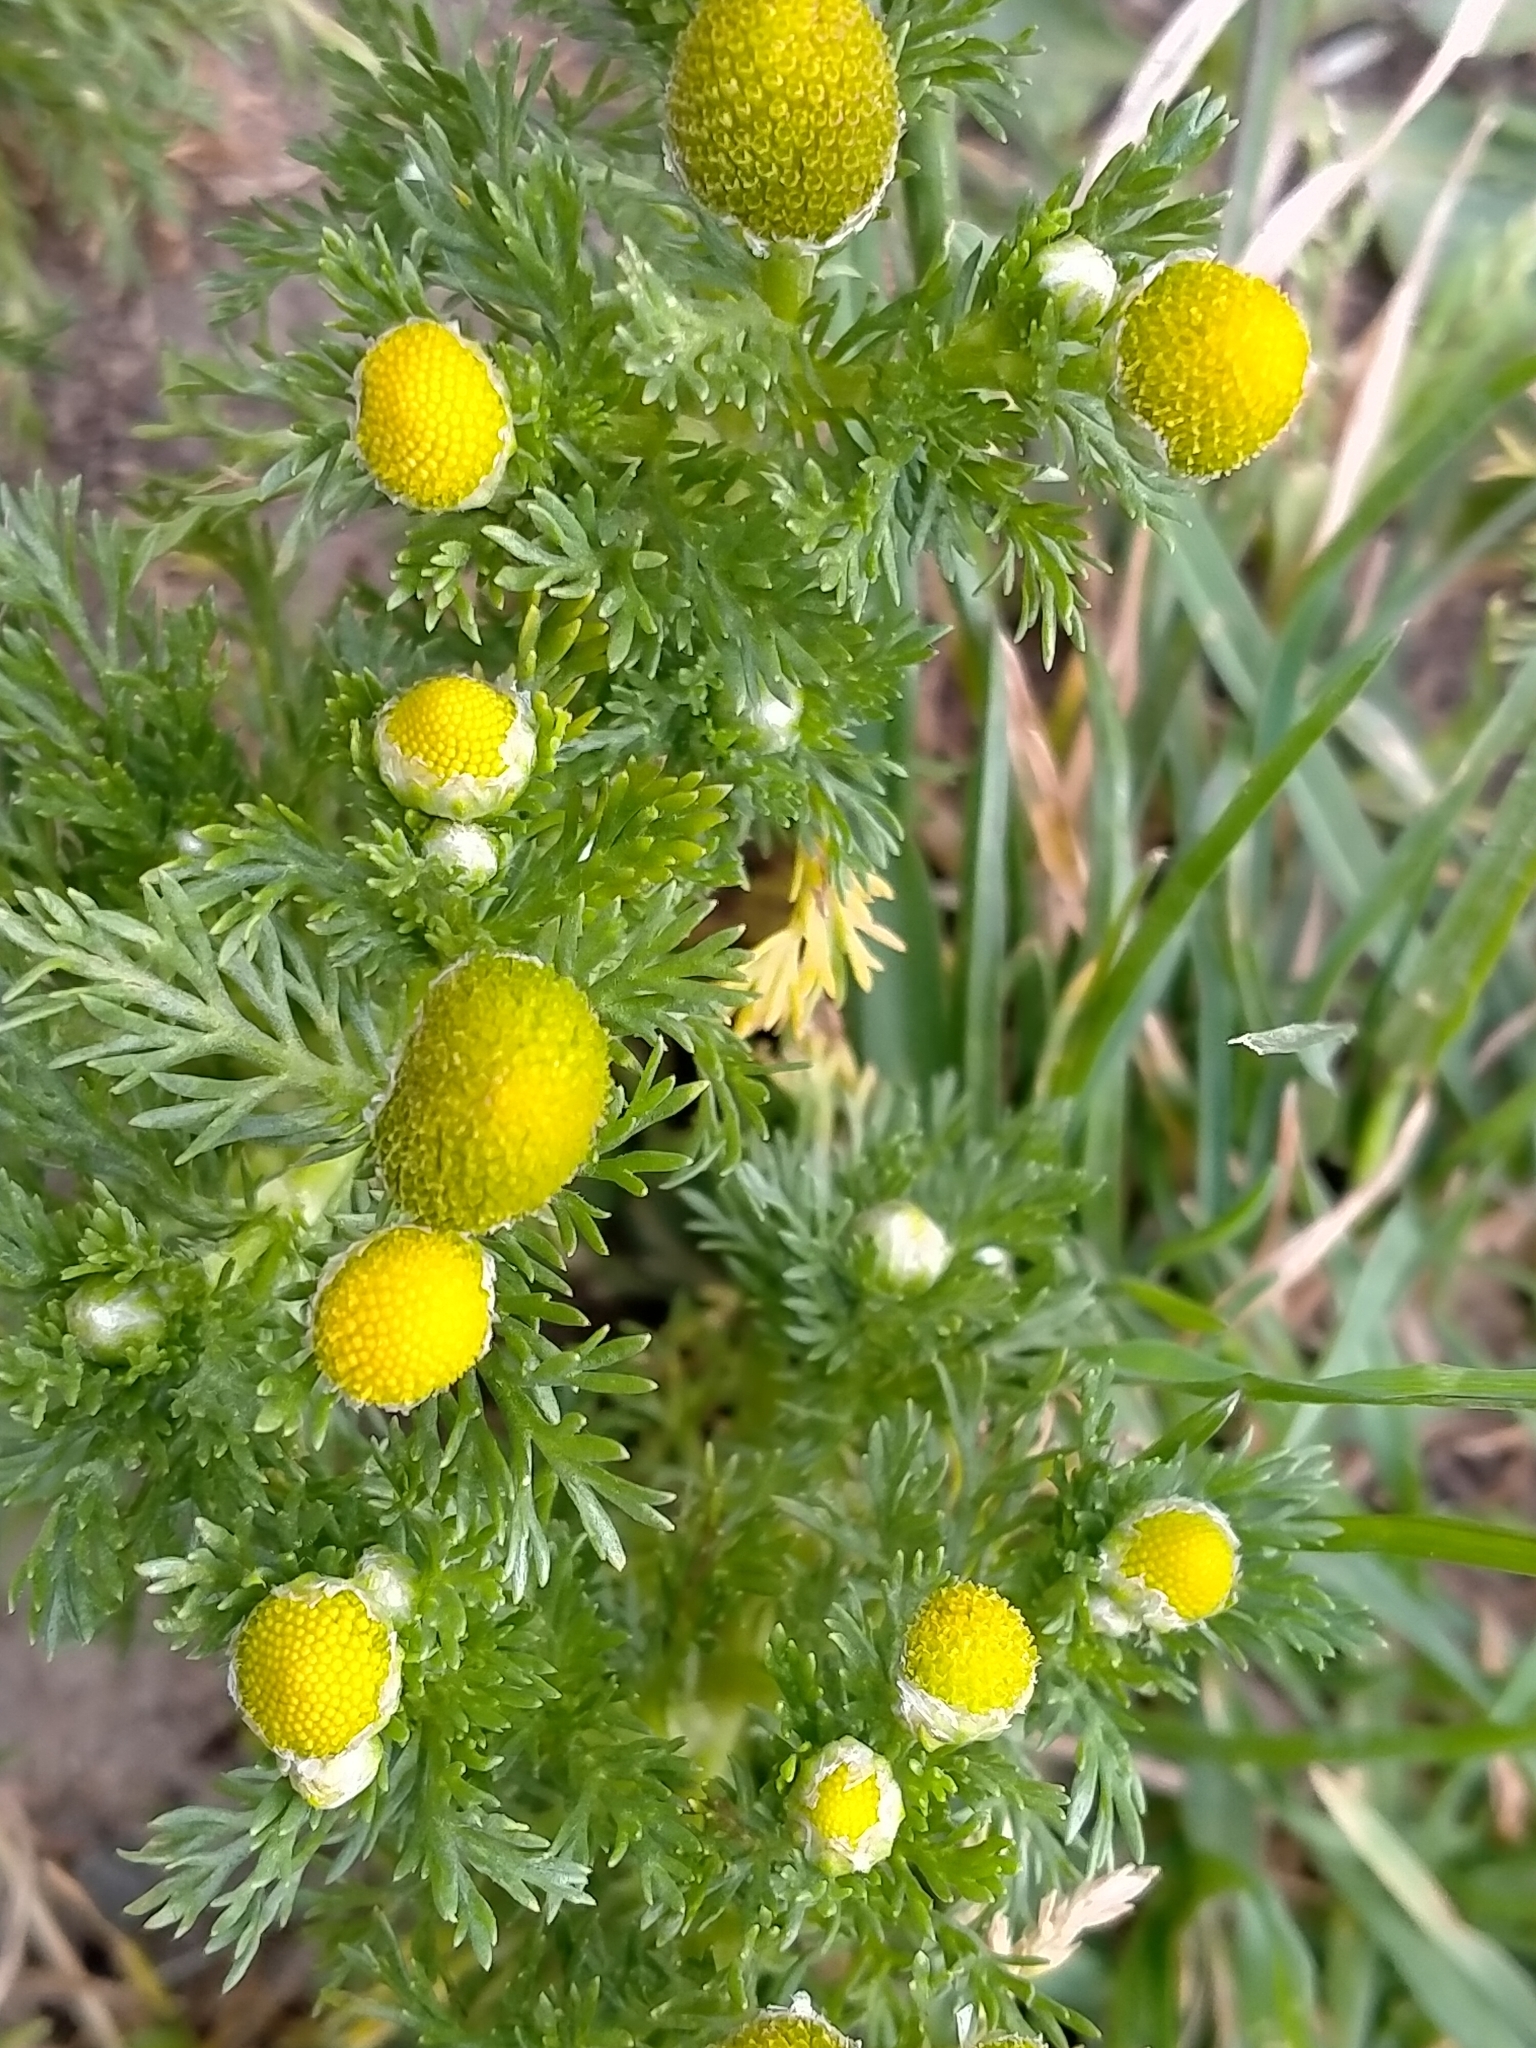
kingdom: Plantae
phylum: Tracheophyta
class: Magnoliopsida
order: Asterales
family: Asteraceae
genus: Matricaria
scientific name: Matricaria discoidea
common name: Disc mayweed
